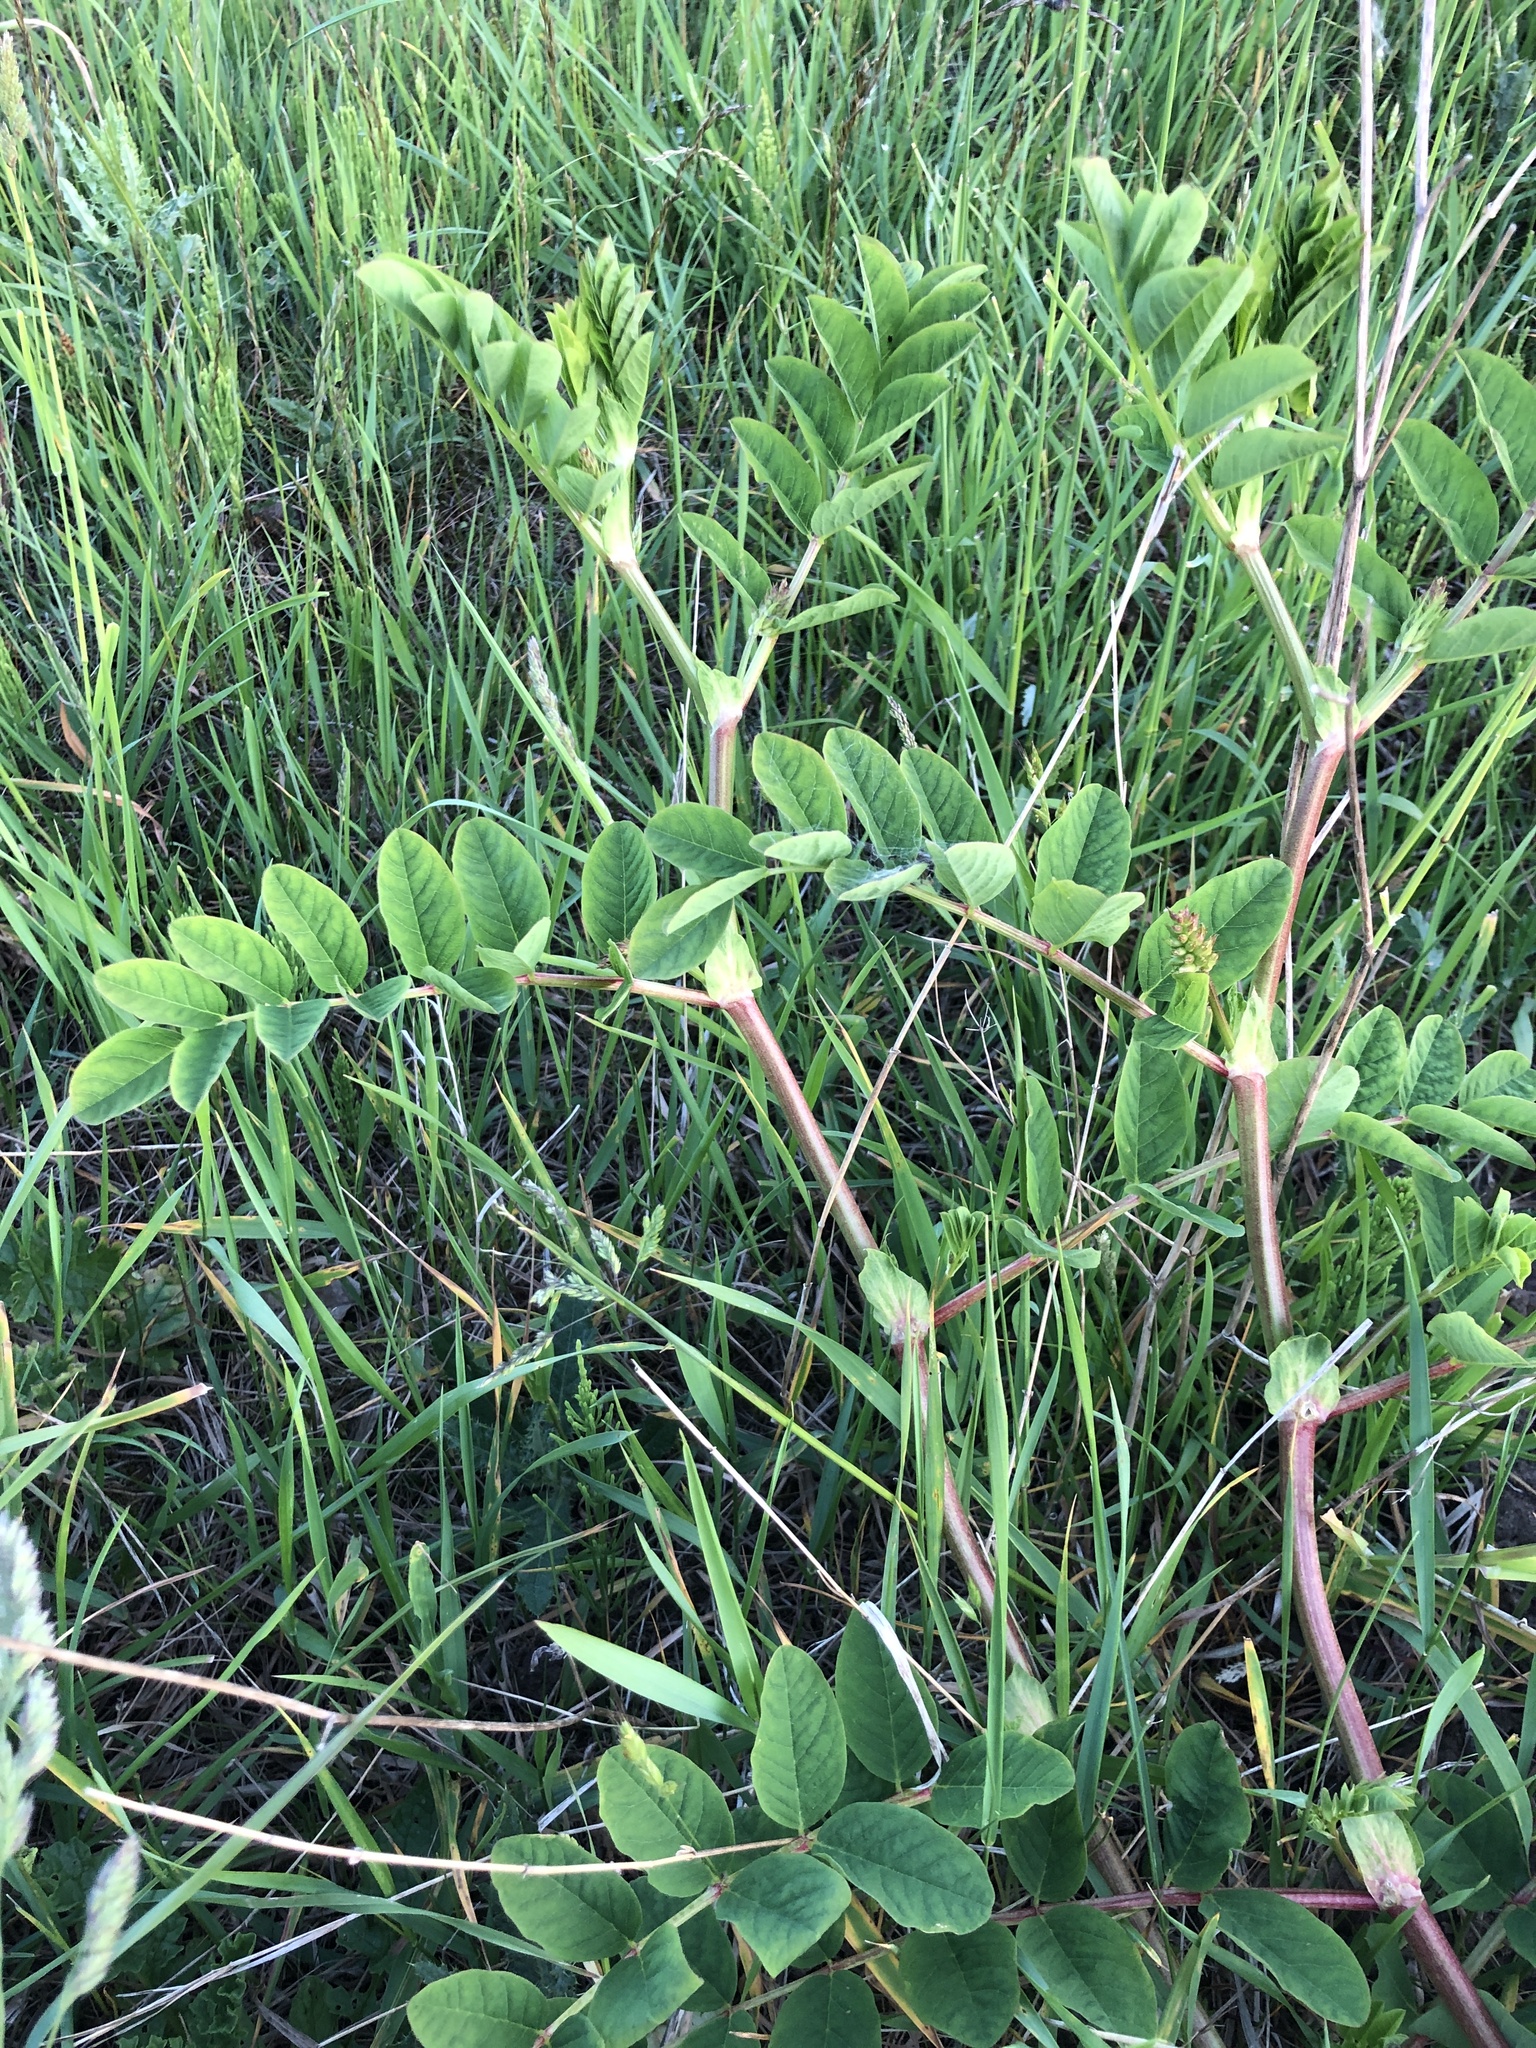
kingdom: Plantae
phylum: Tracheophyta
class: Magnoliopsida
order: Fabales
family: Fabaceae
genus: Astragalus
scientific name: Astragalus glycyphyllos
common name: Wild liquorice
